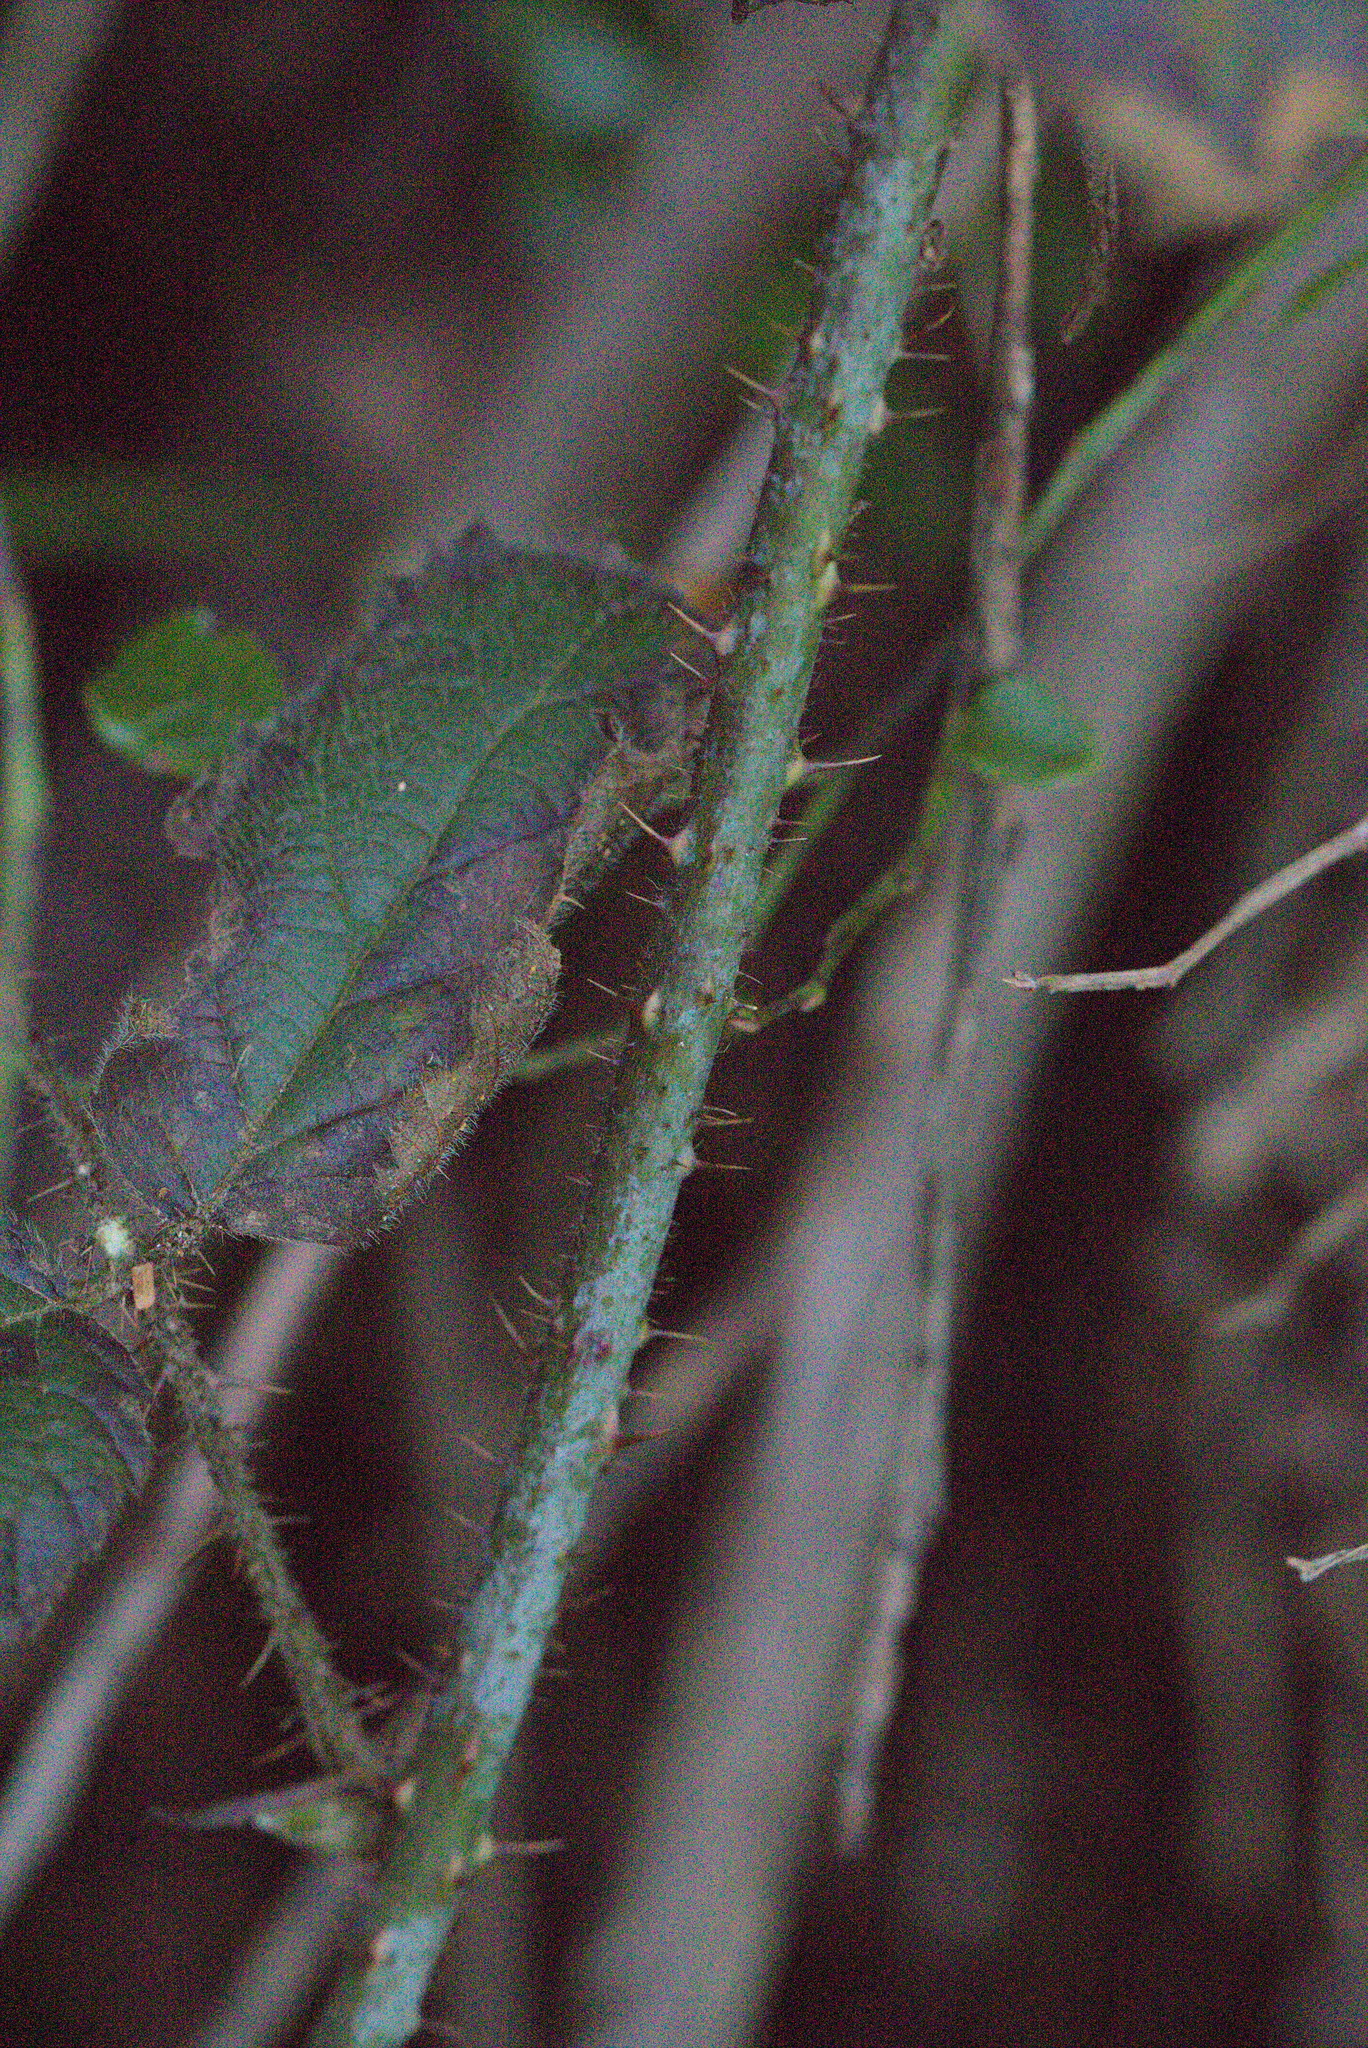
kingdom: Plantae
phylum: Tracheophyta
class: Magnoliopsida
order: Rosales
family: Rosaceae
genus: Rubus
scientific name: Rubus ursinus
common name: Pacific blackberry
